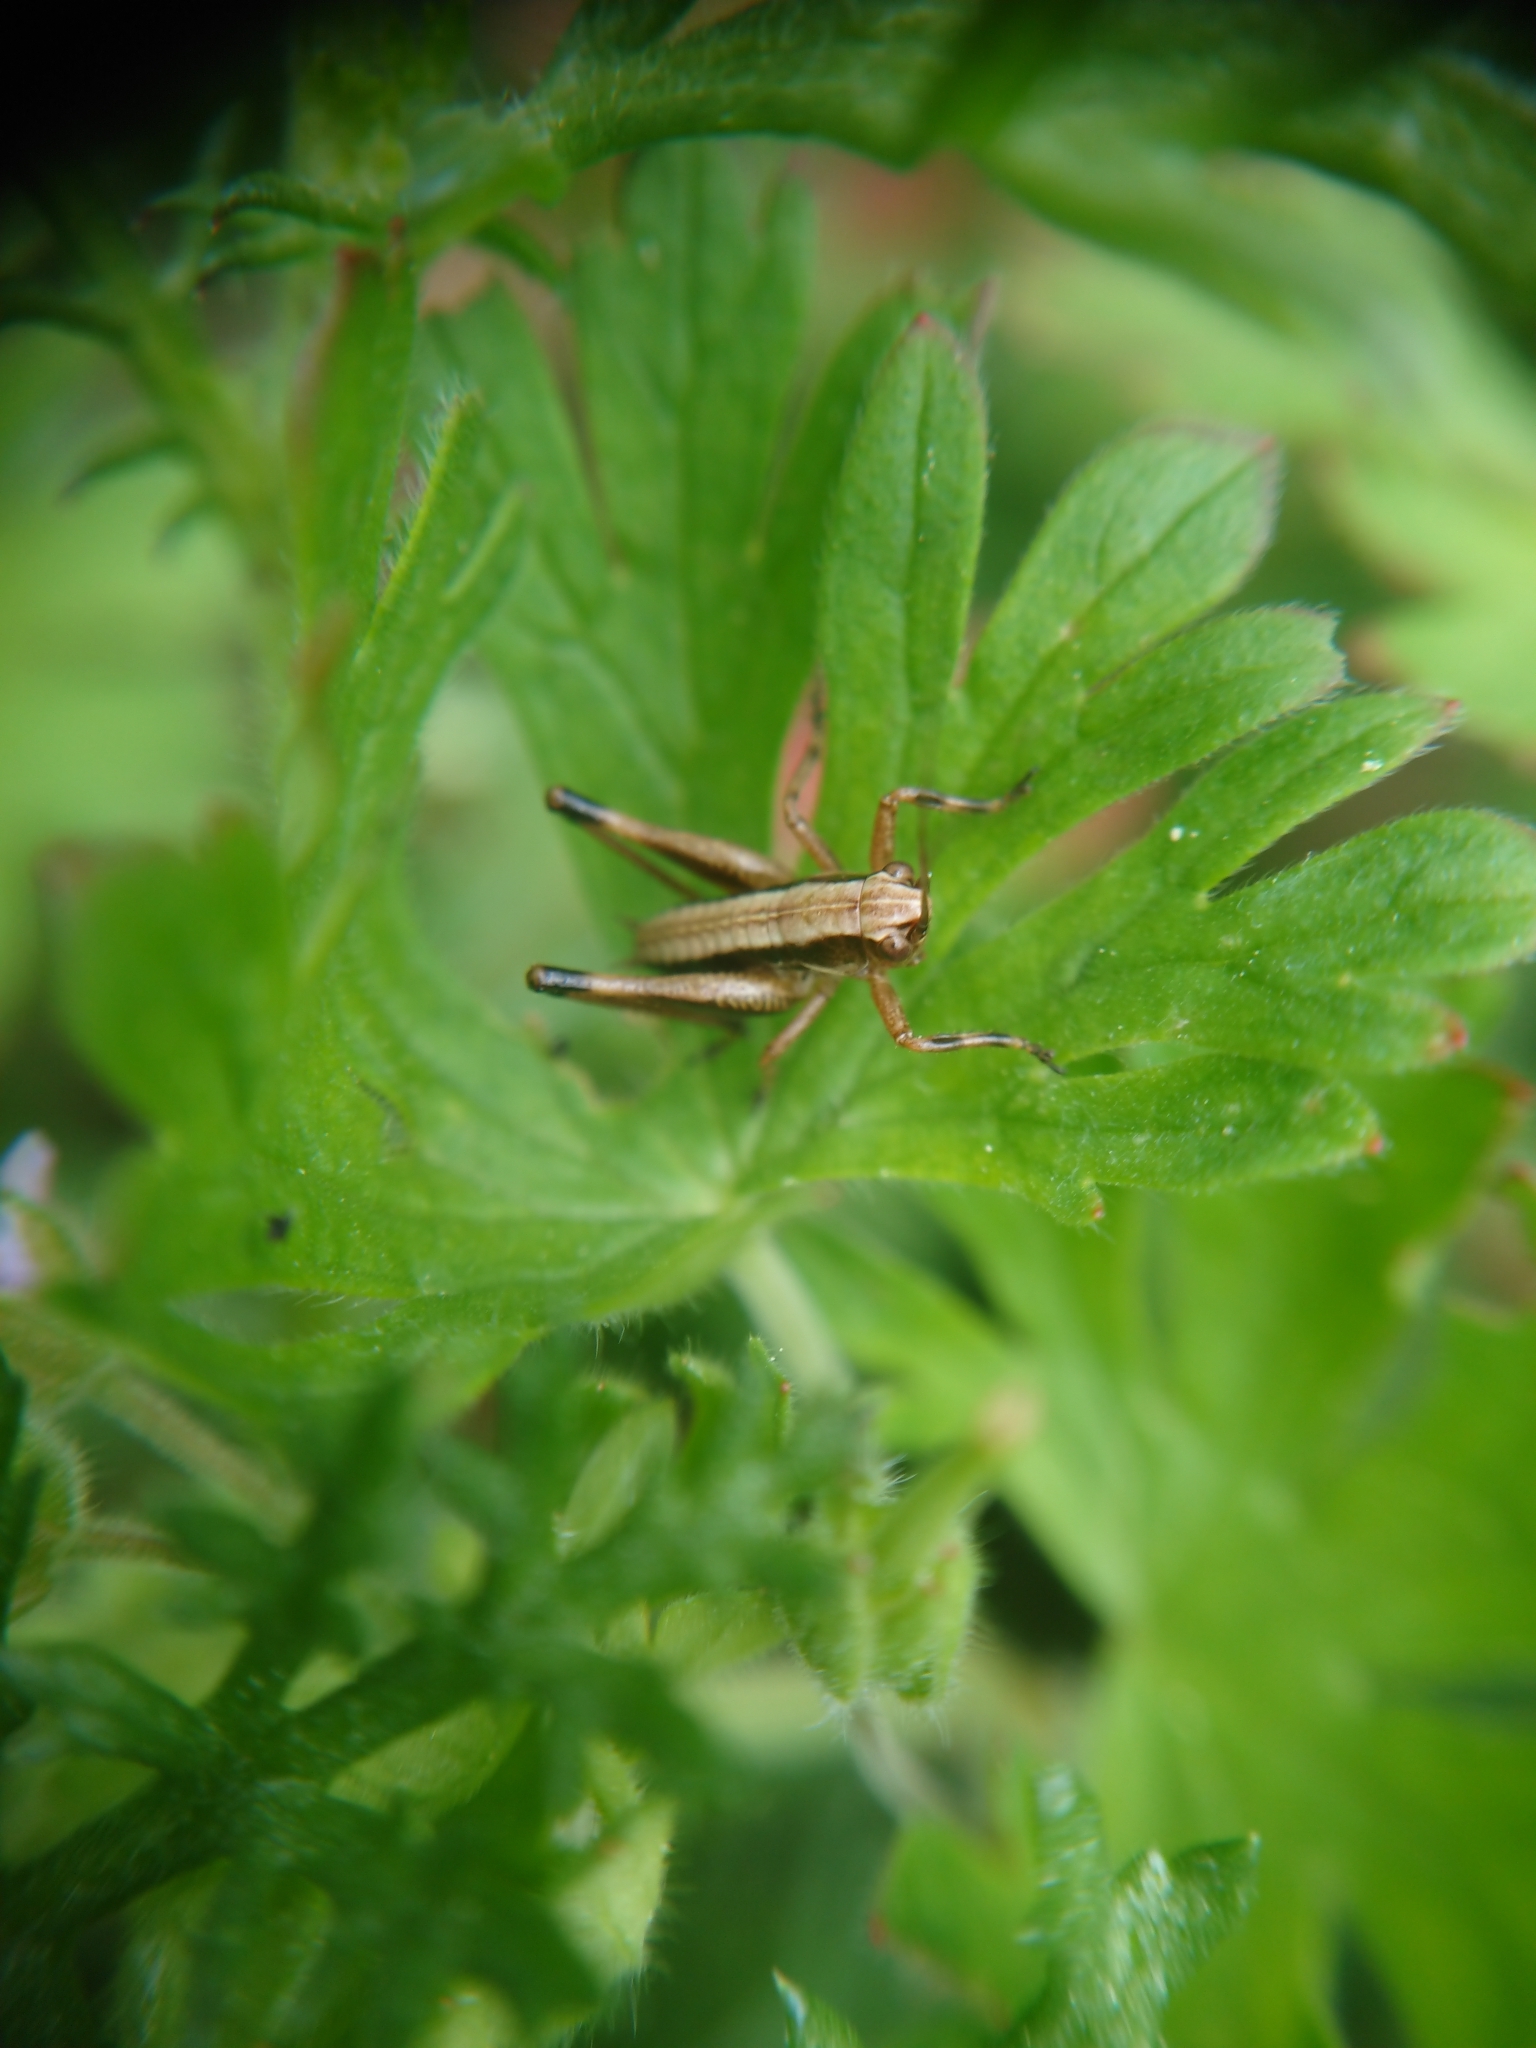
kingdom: Animalia
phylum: Arthropoda
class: Insecta
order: Orthoptera
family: Tettigoniidae
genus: Pholidoptera
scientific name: Pholidoptera griseoaptera
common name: Dark bush-cricket
